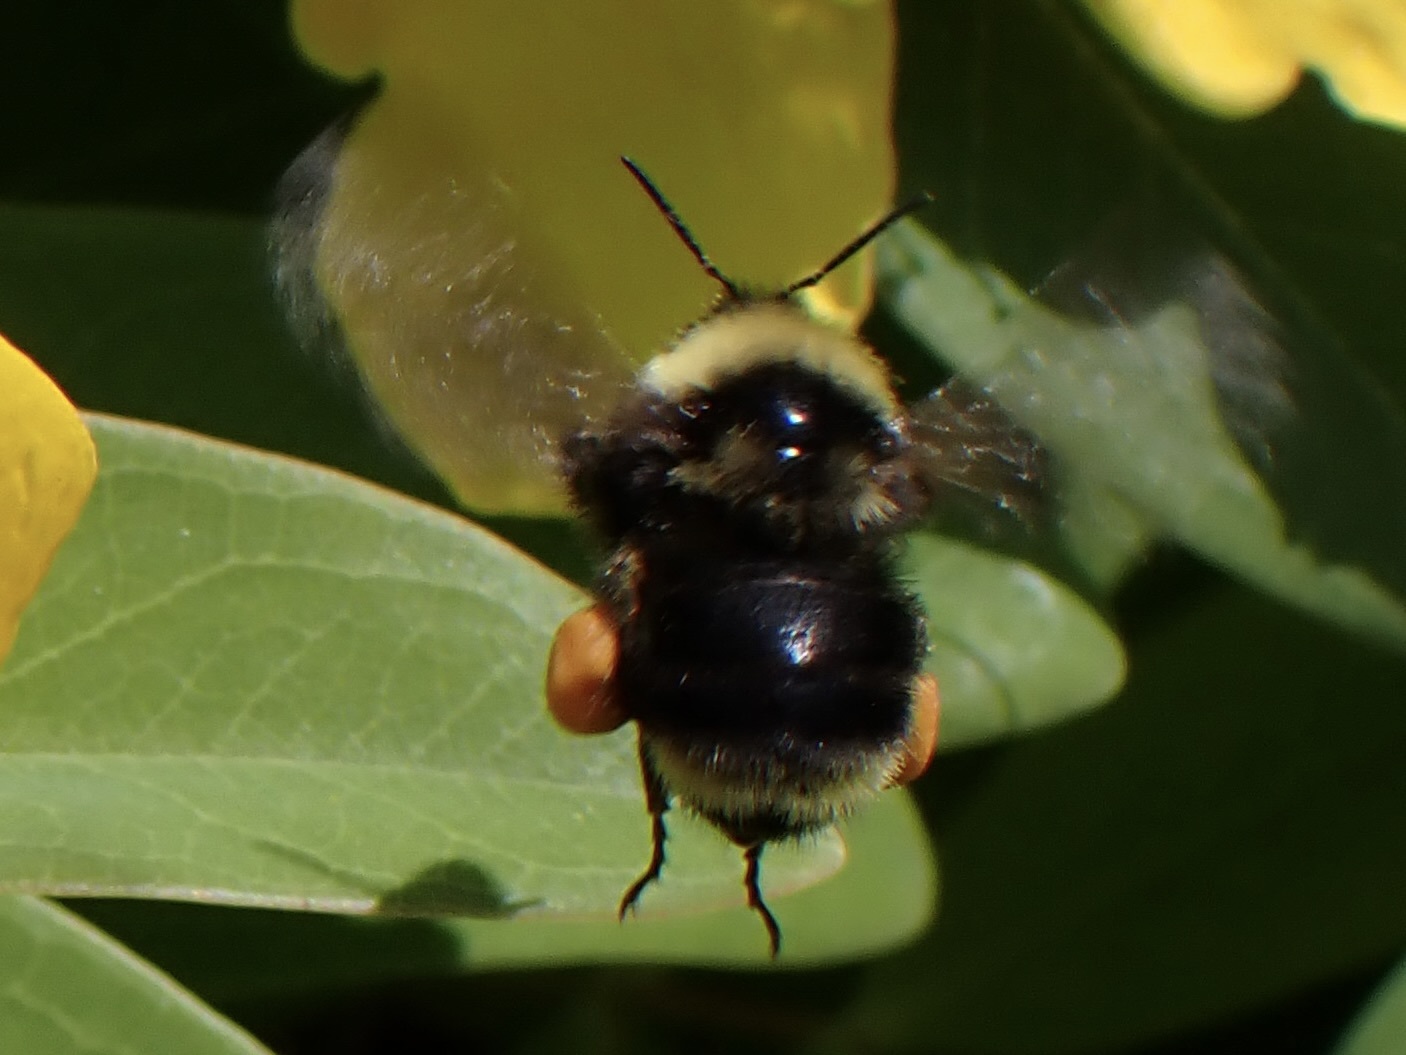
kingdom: Animalia
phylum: Arthropoda
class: Insecta
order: Hymenoptera
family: Apidae
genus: Bombus
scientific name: Bombus californicus
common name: California bumble bee
